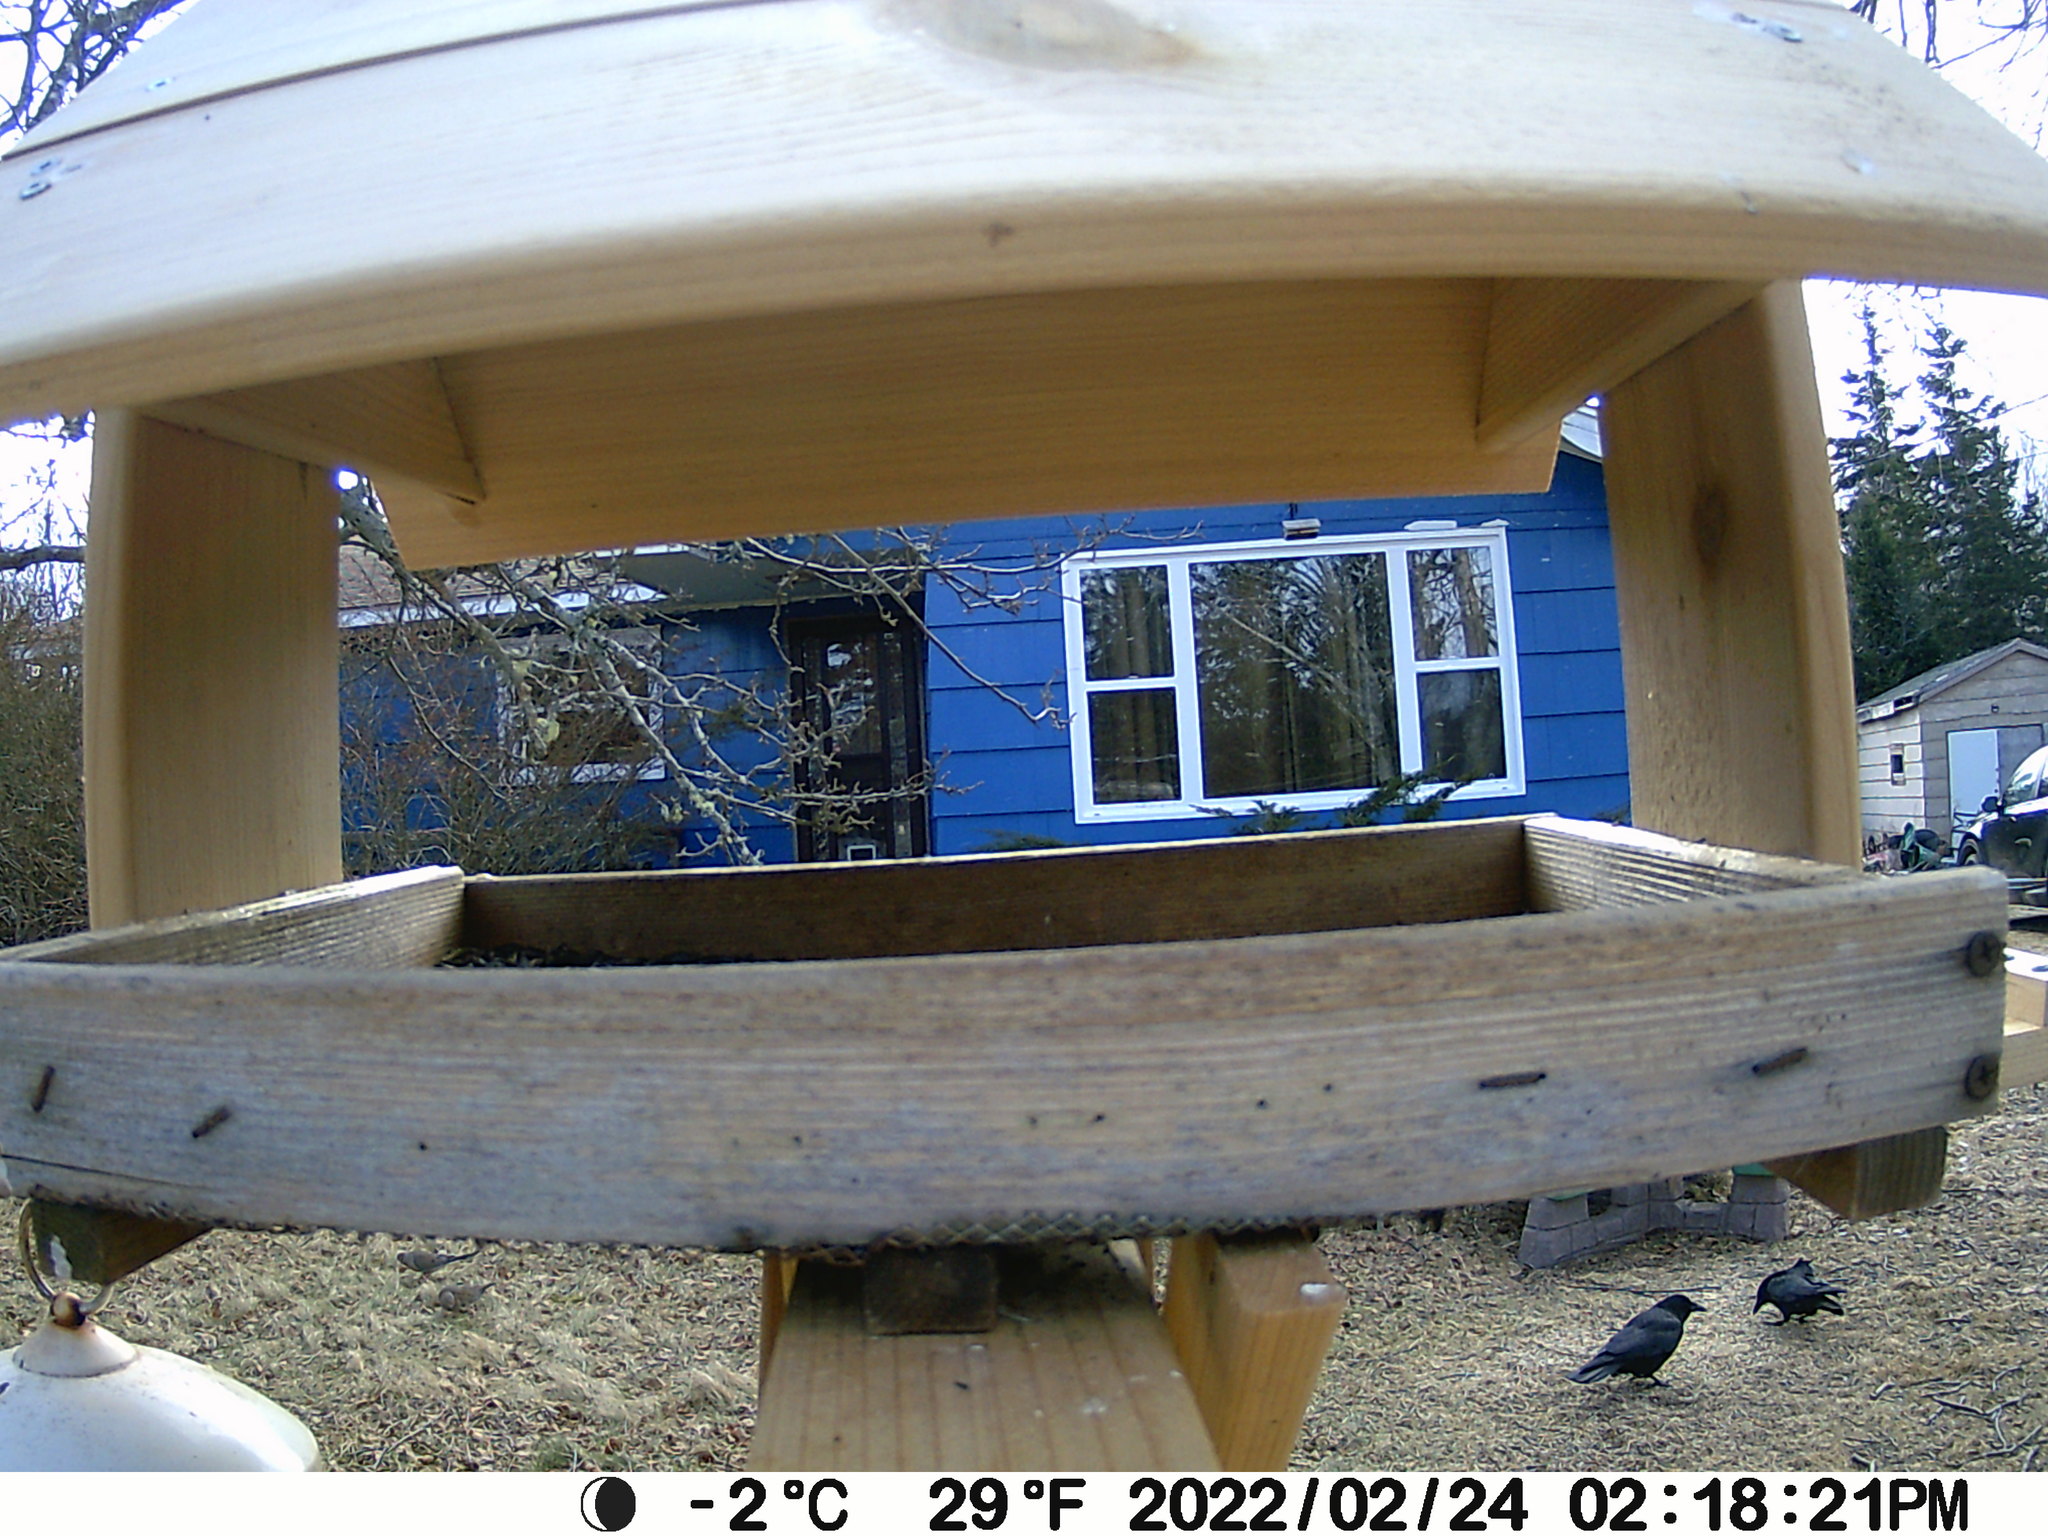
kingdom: Animalia
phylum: Chordata
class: Aves
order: Passeriformes
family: Corvidae
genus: Corvus
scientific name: Corvus brachyrhynchos
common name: American crow
